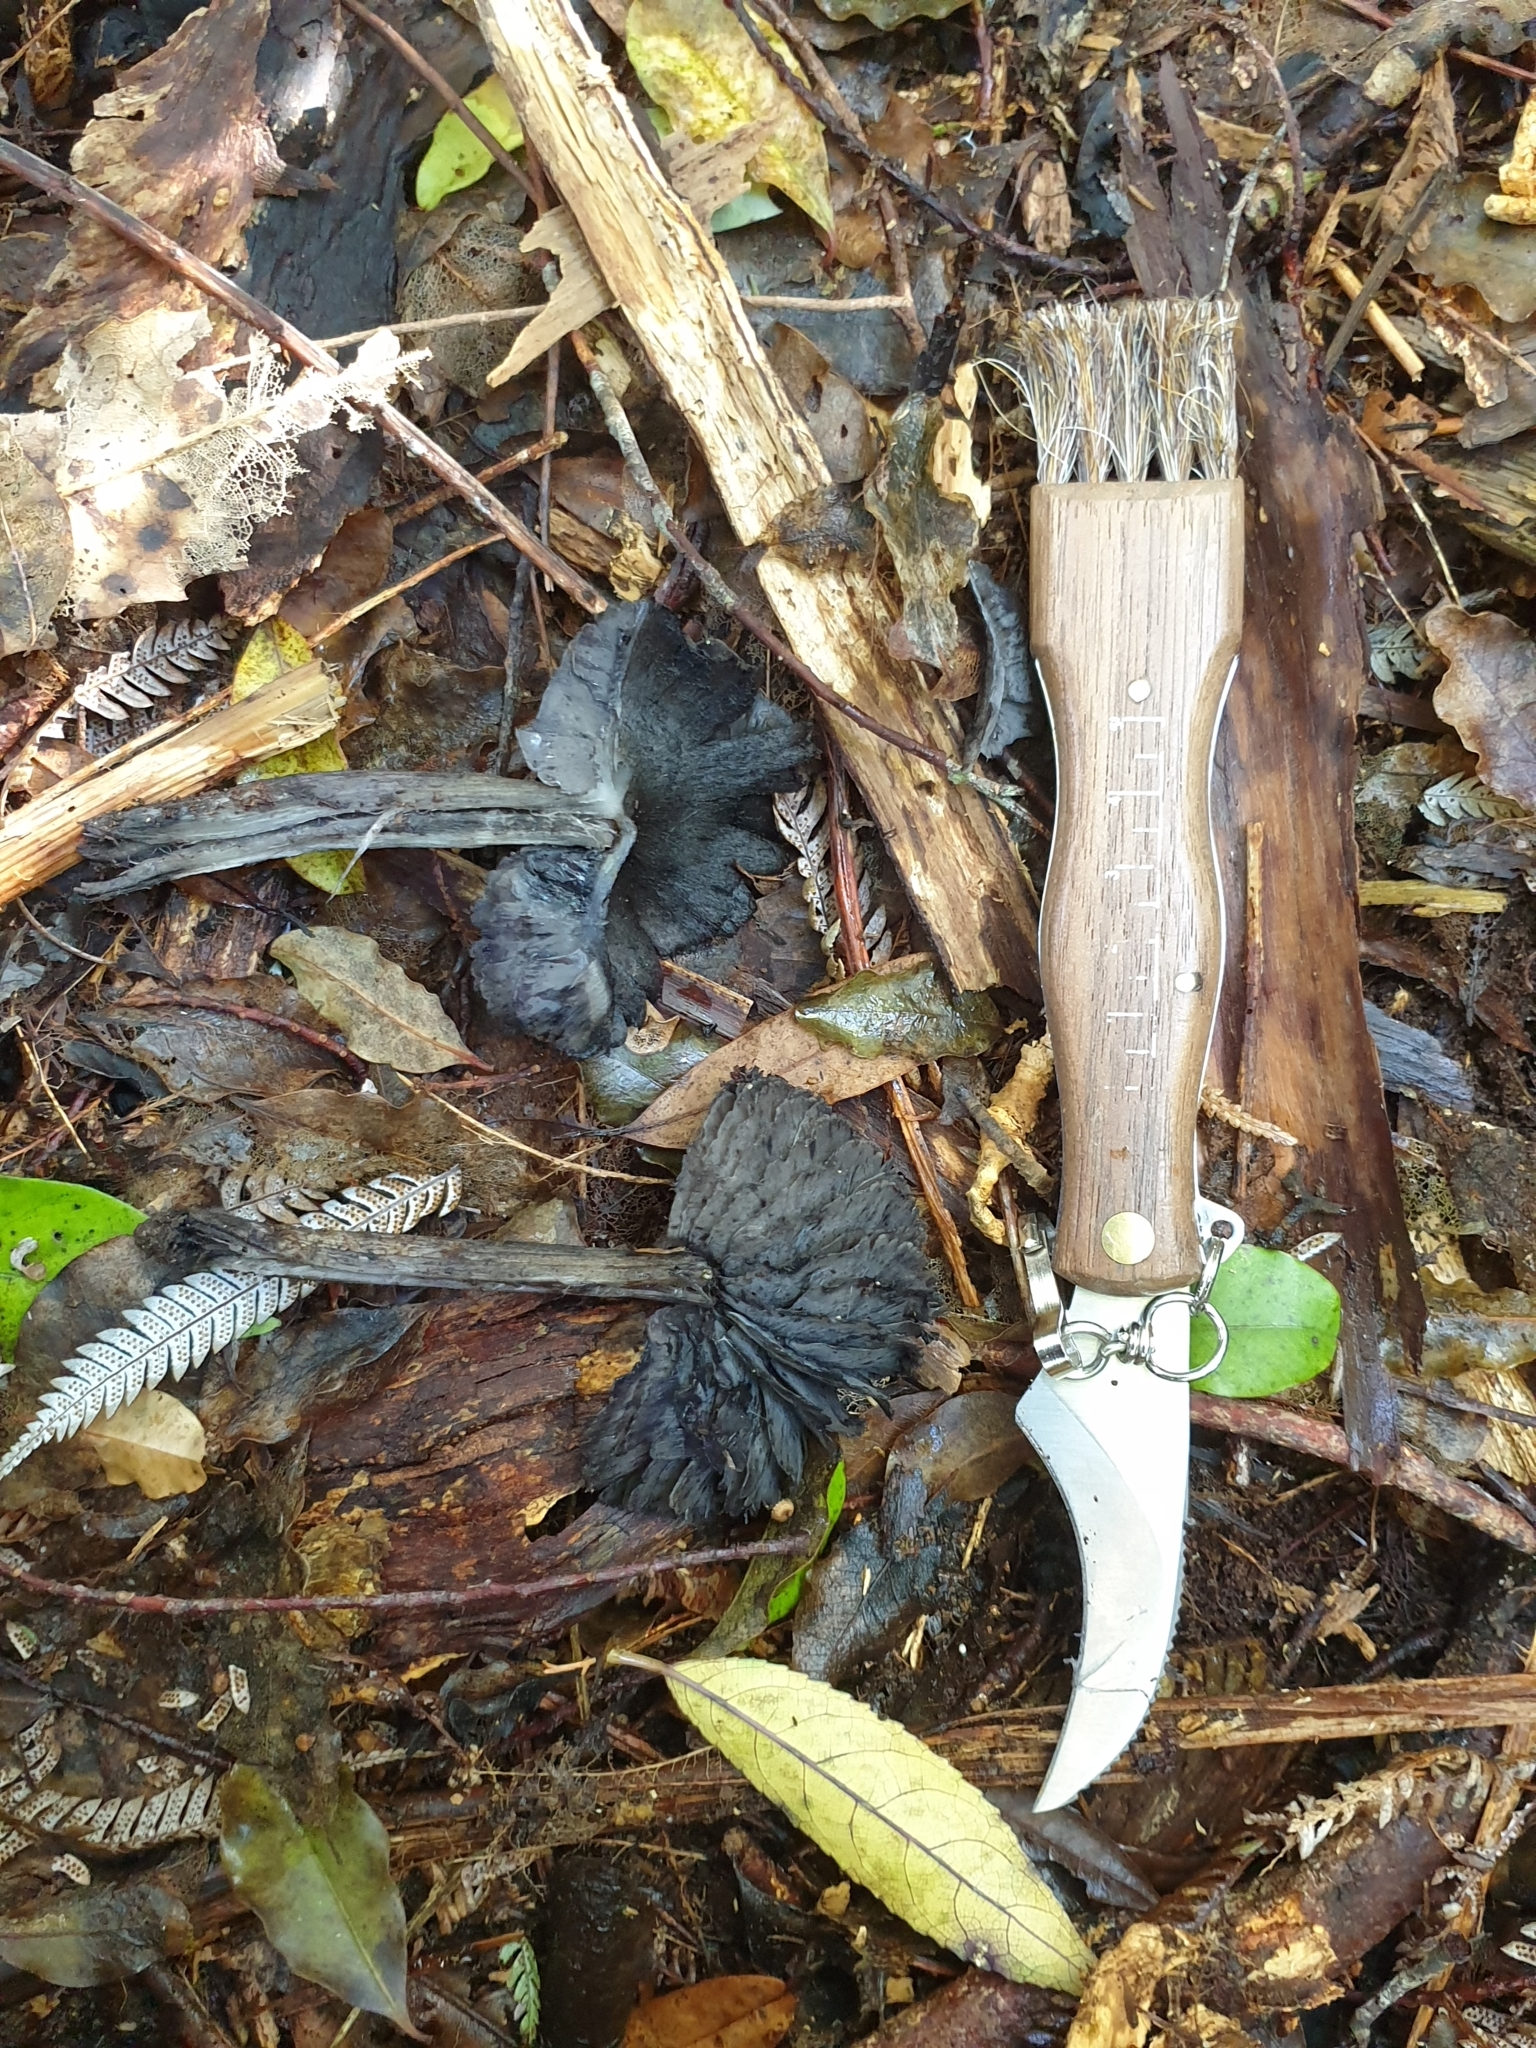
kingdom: Fungi
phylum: Basidiomycota
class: Agaricomycetes
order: Agaricales
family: Hygrophoraceae
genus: Hygrocybe
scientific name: Hygrocybe astatogala
